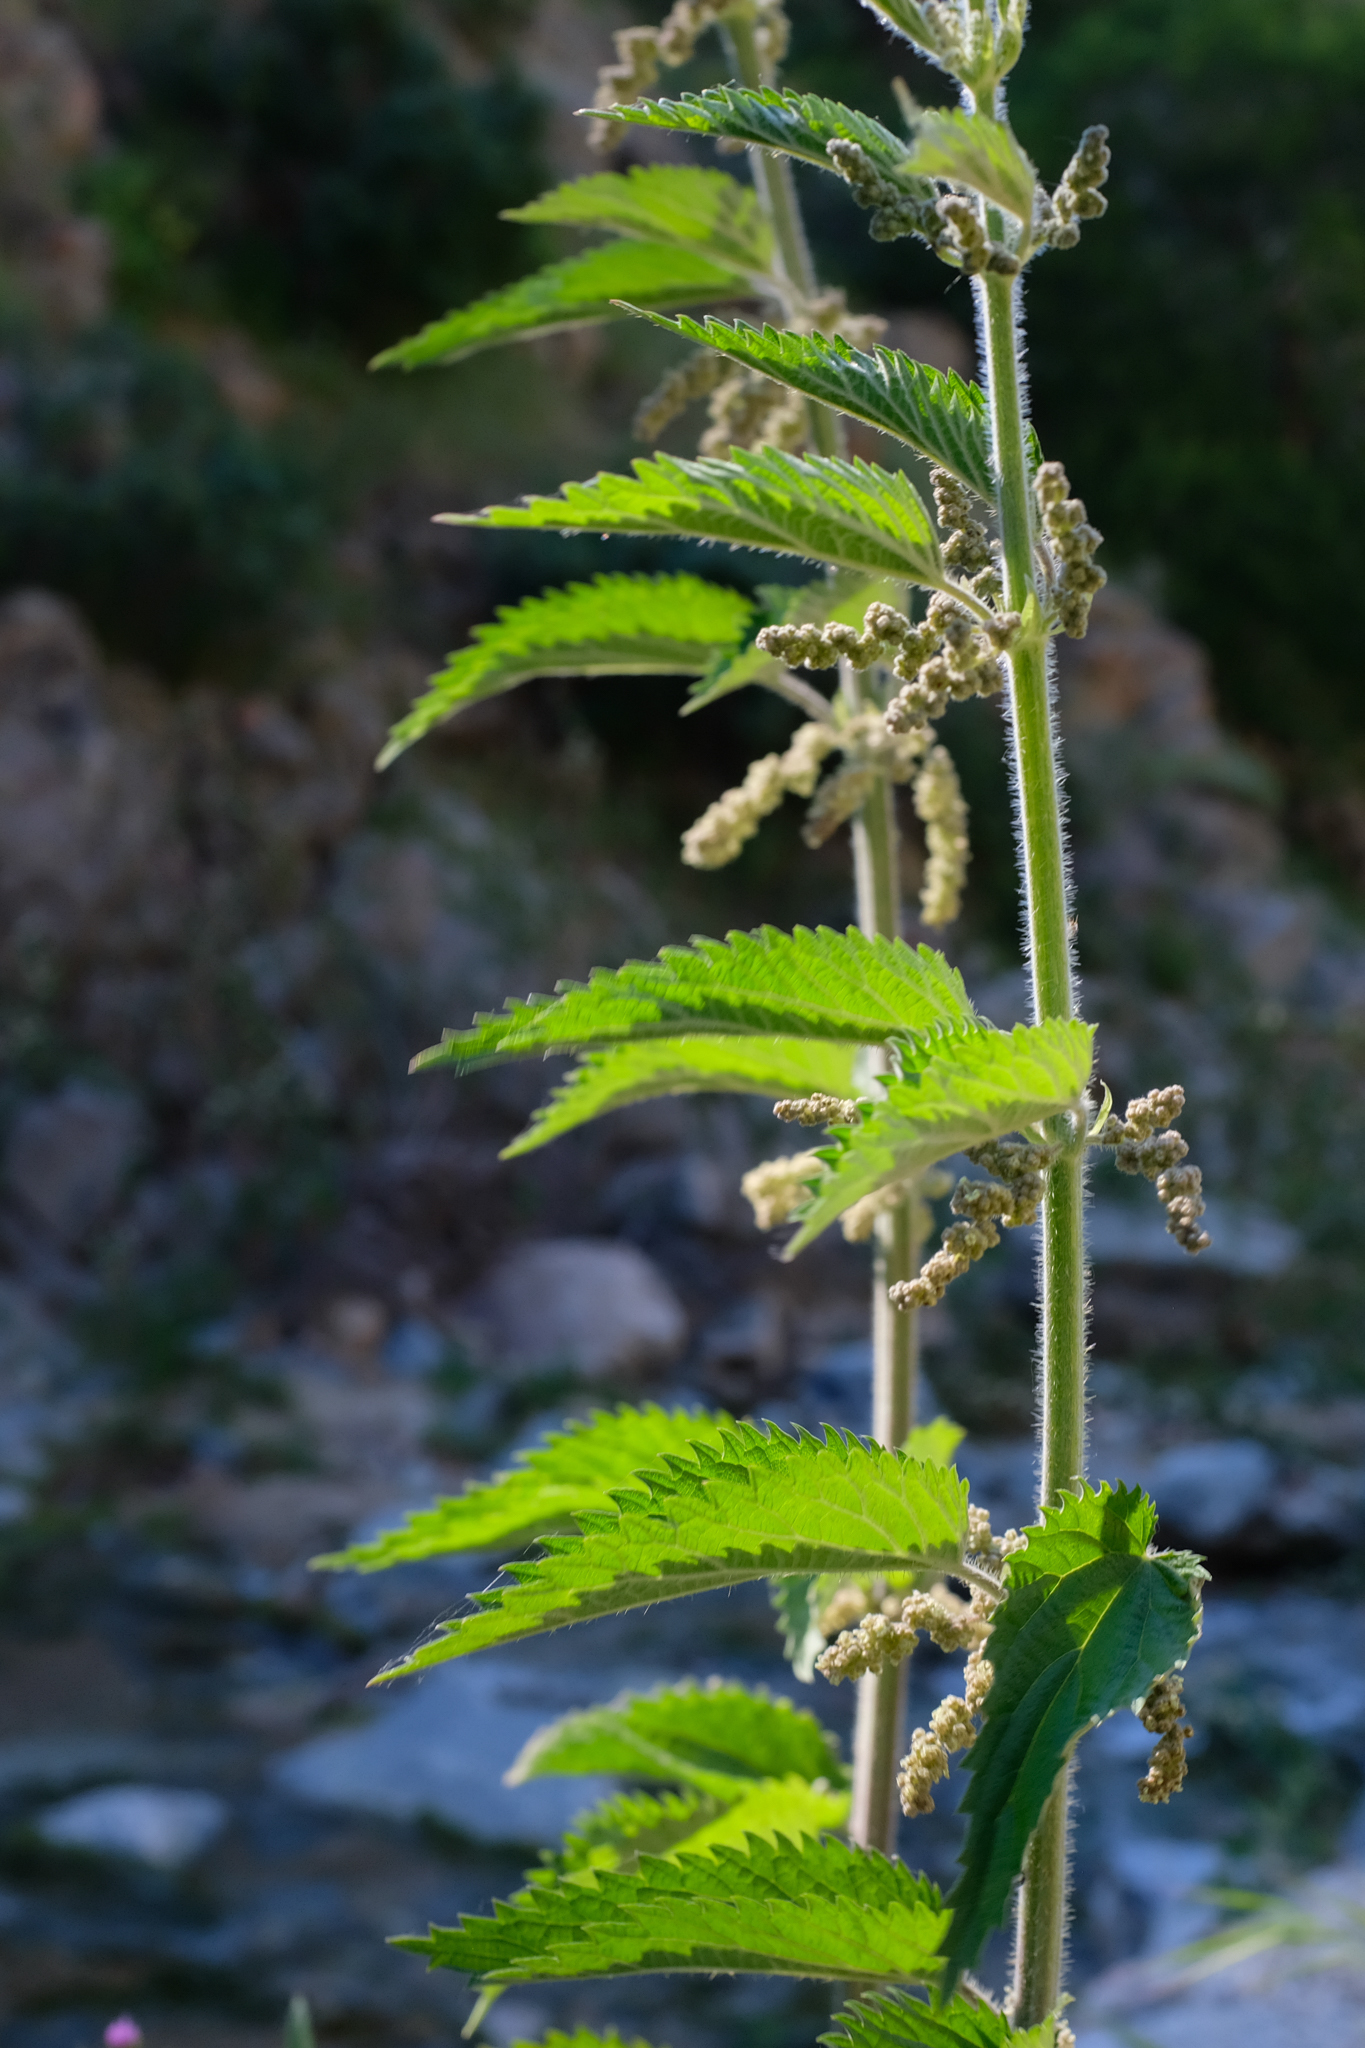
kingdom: Plantae
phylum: Tracheophyta
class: Magnoliopsida
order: Rosales
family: Urticaceae
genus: Urtica
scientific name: Urtica gracilis
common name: Slender stinging nettle
